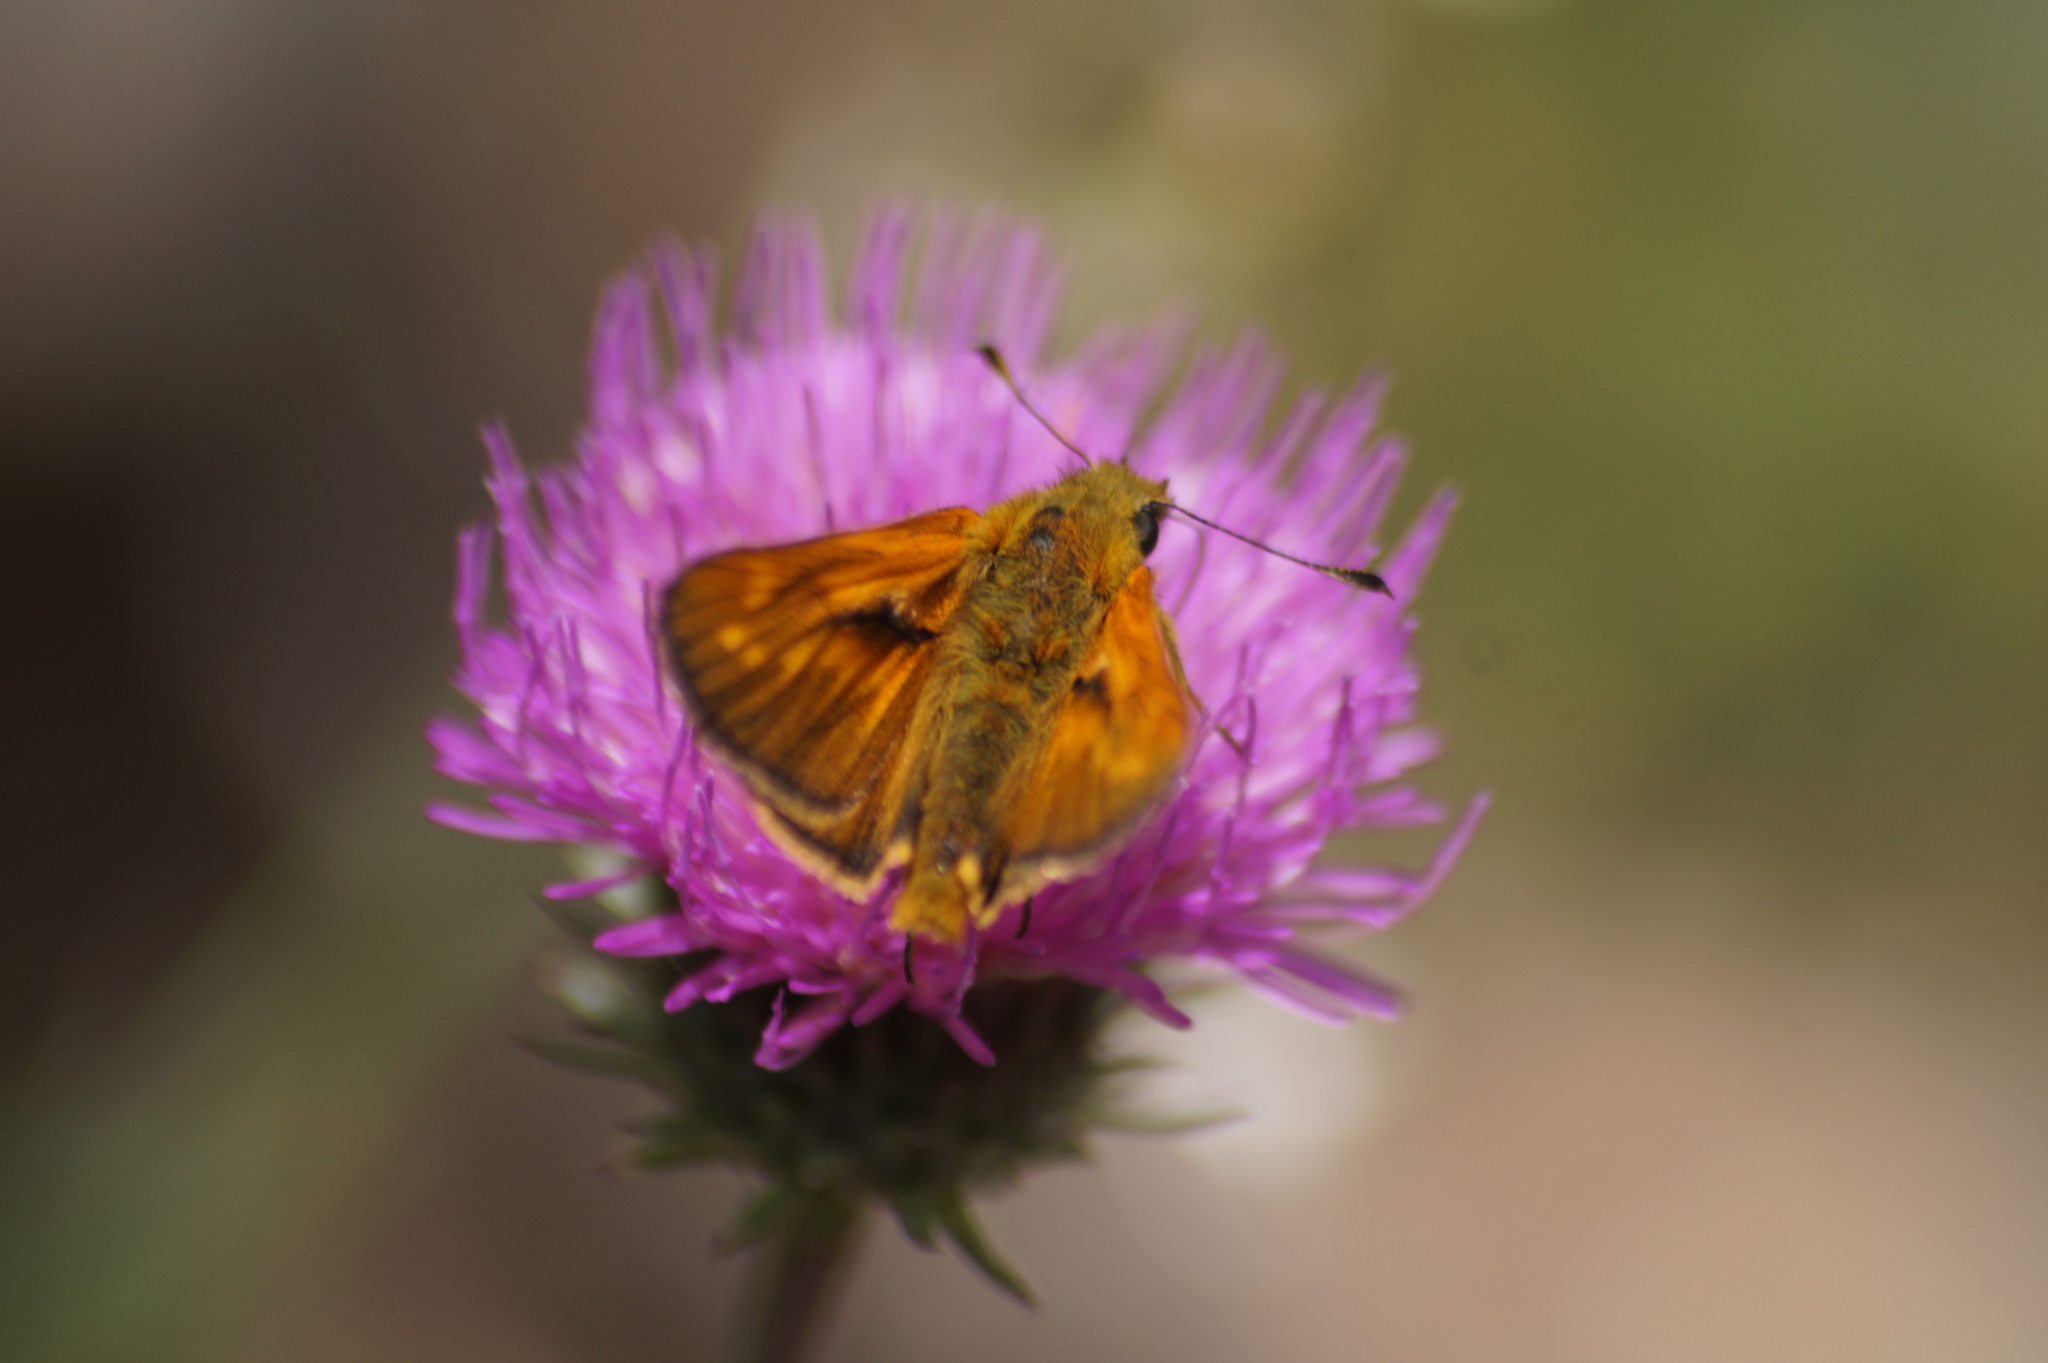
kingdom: Animalia
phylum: Arthropoda
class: Insecta
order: Lepidoptera
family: Hesperiidae
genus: Ochlodes
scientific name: Ochlodes venata
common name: Large skipper
